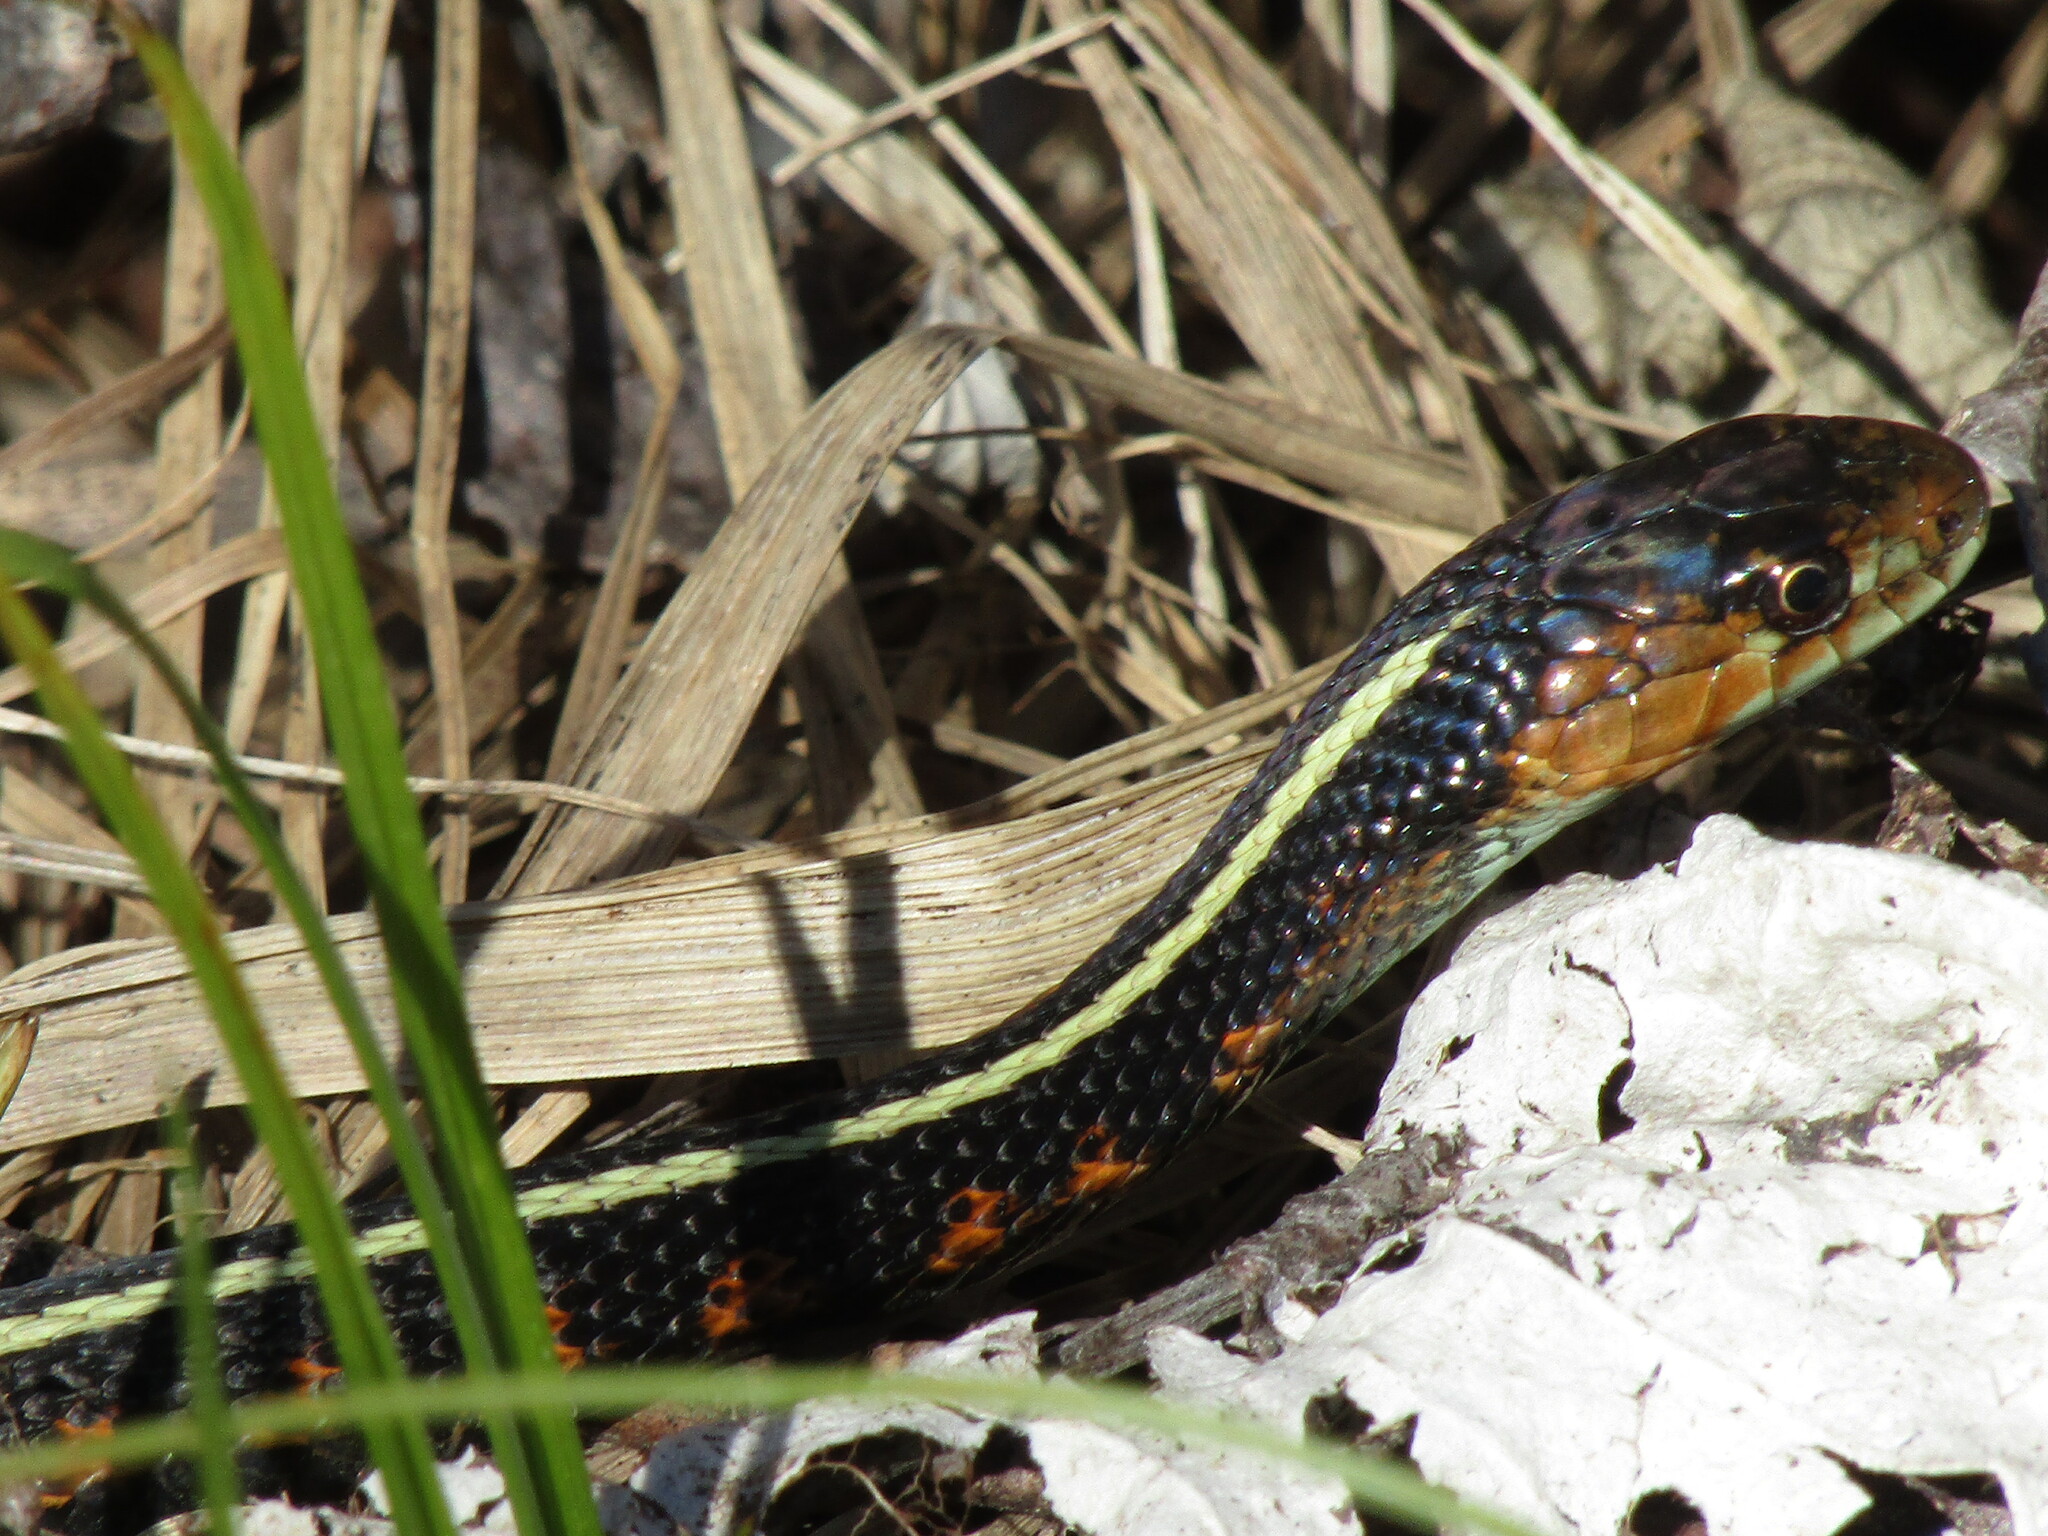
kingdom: Animalia
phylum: Chordata
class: Squamata
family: Colubridae
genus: Thamnophis
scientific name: Thamnophis sirtalis
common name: Common garter snake
